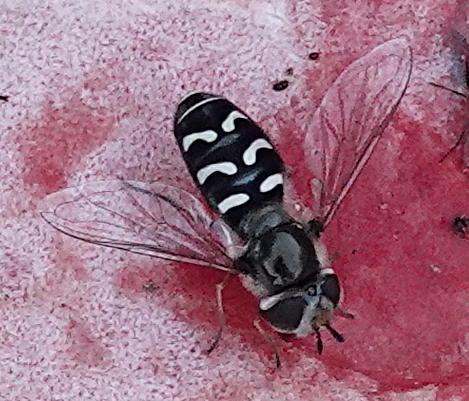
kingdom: Animalia
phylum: Arthropoda
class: Insecta
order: Diptera
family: Syrphidae
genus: Scaeva
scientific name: Scaeva affinis
